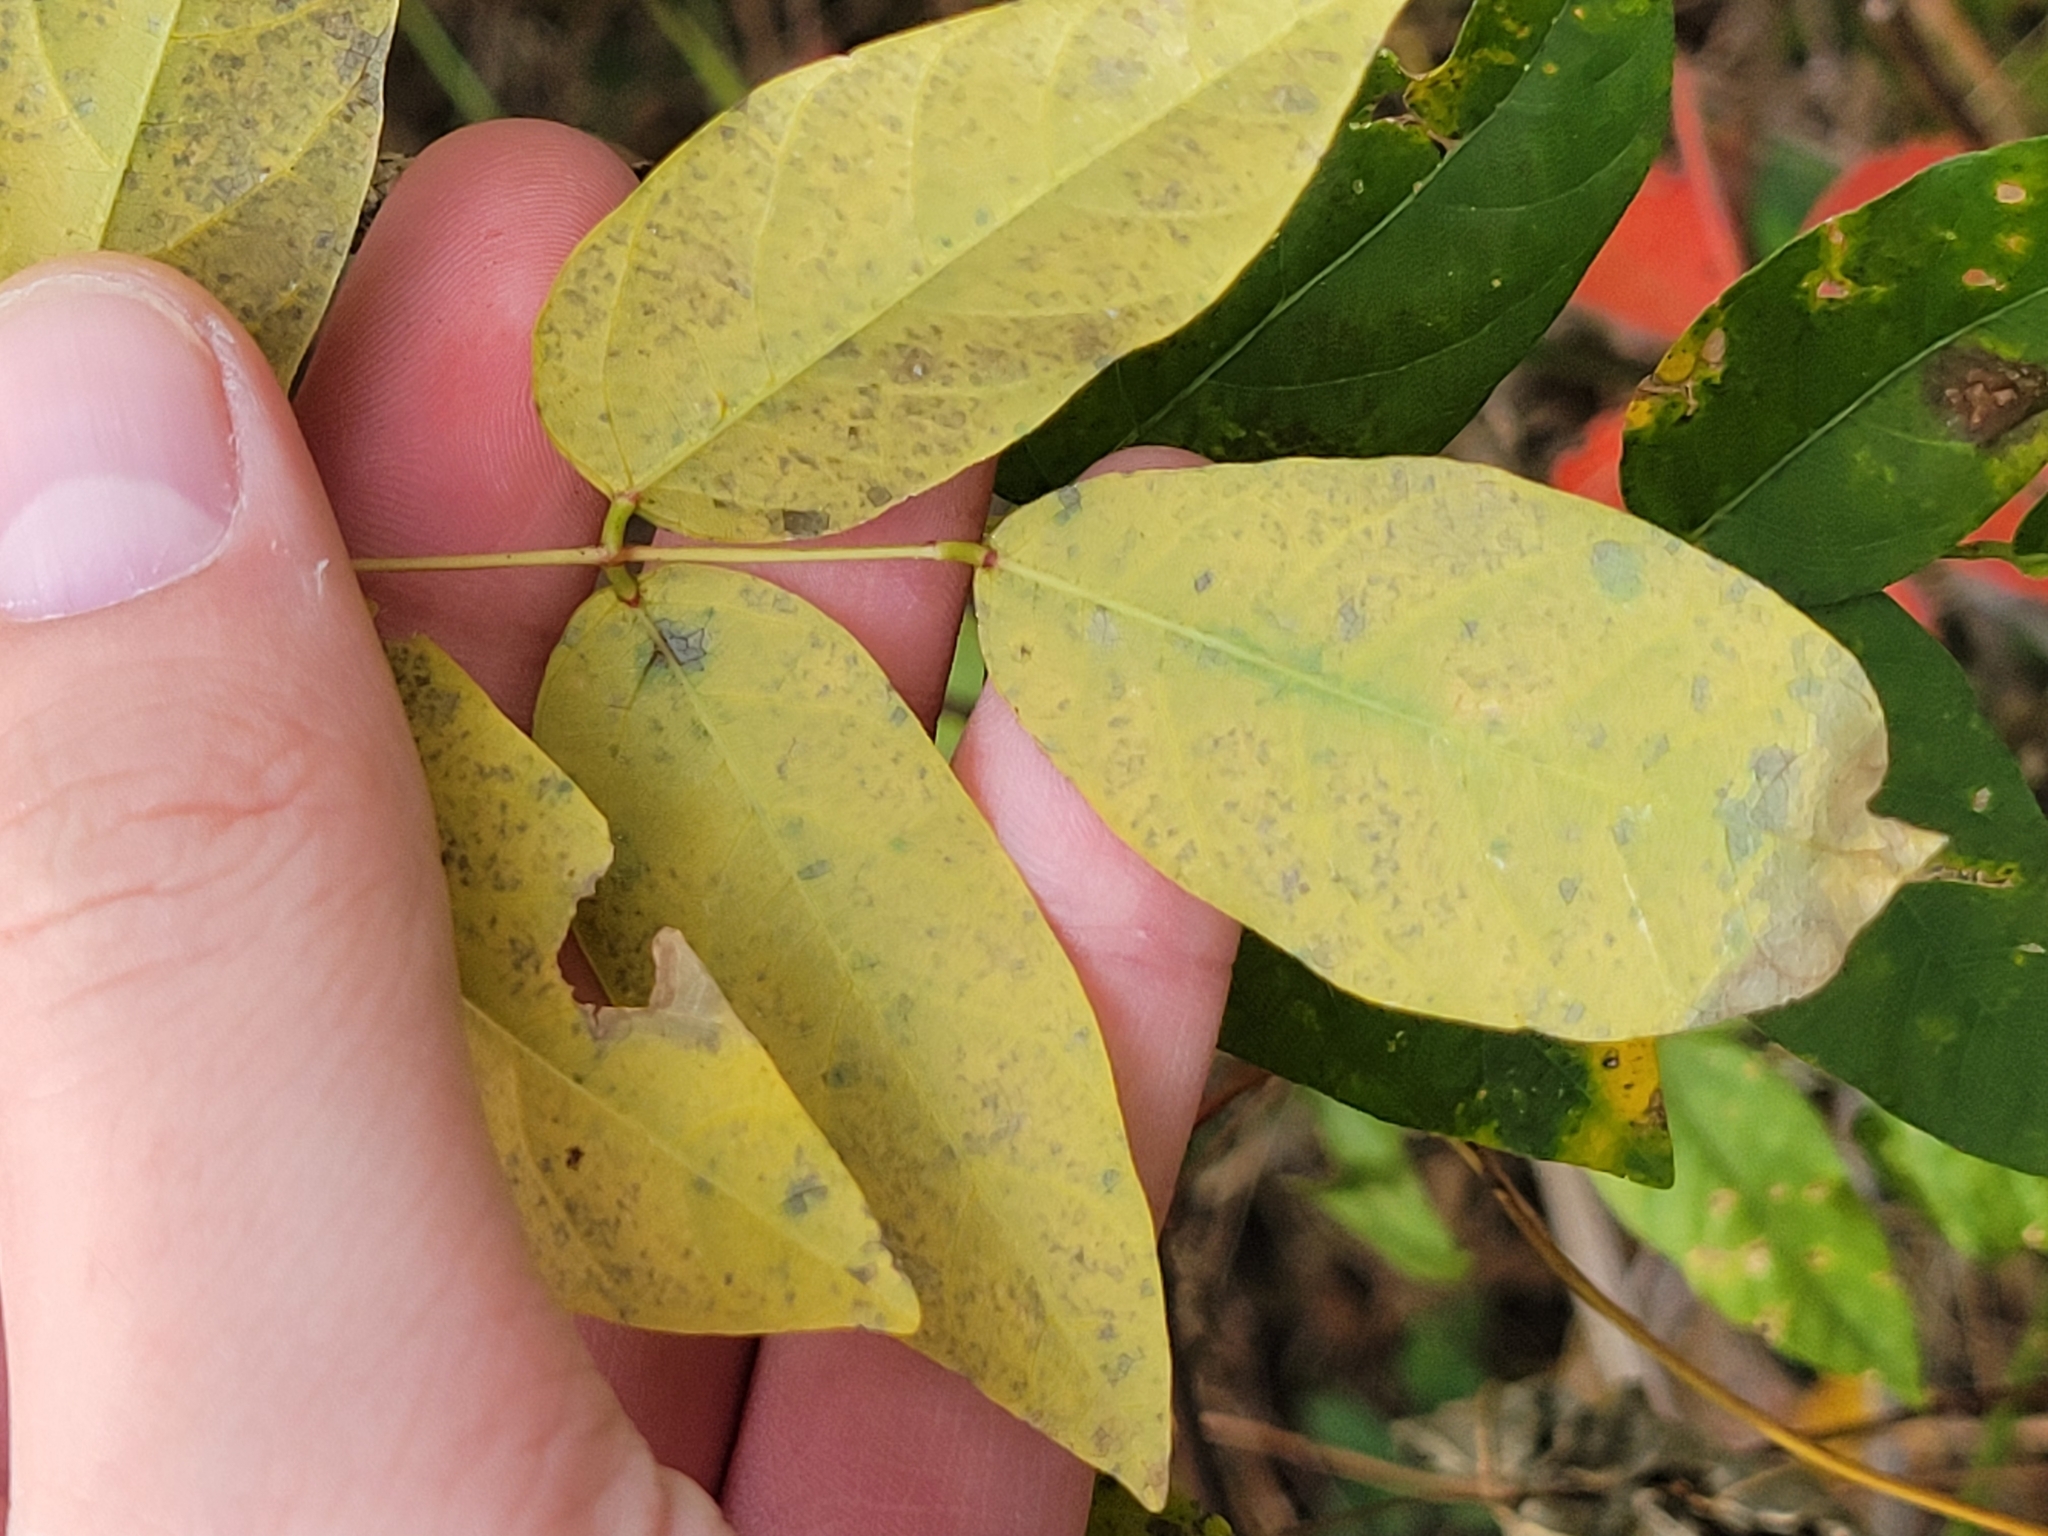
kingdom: Plantae
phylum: Tracheophyta
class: Magnoliopsida
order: Fabales
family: Fabaceae
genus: Apios
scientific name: Apios americana
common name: American potato-bean
